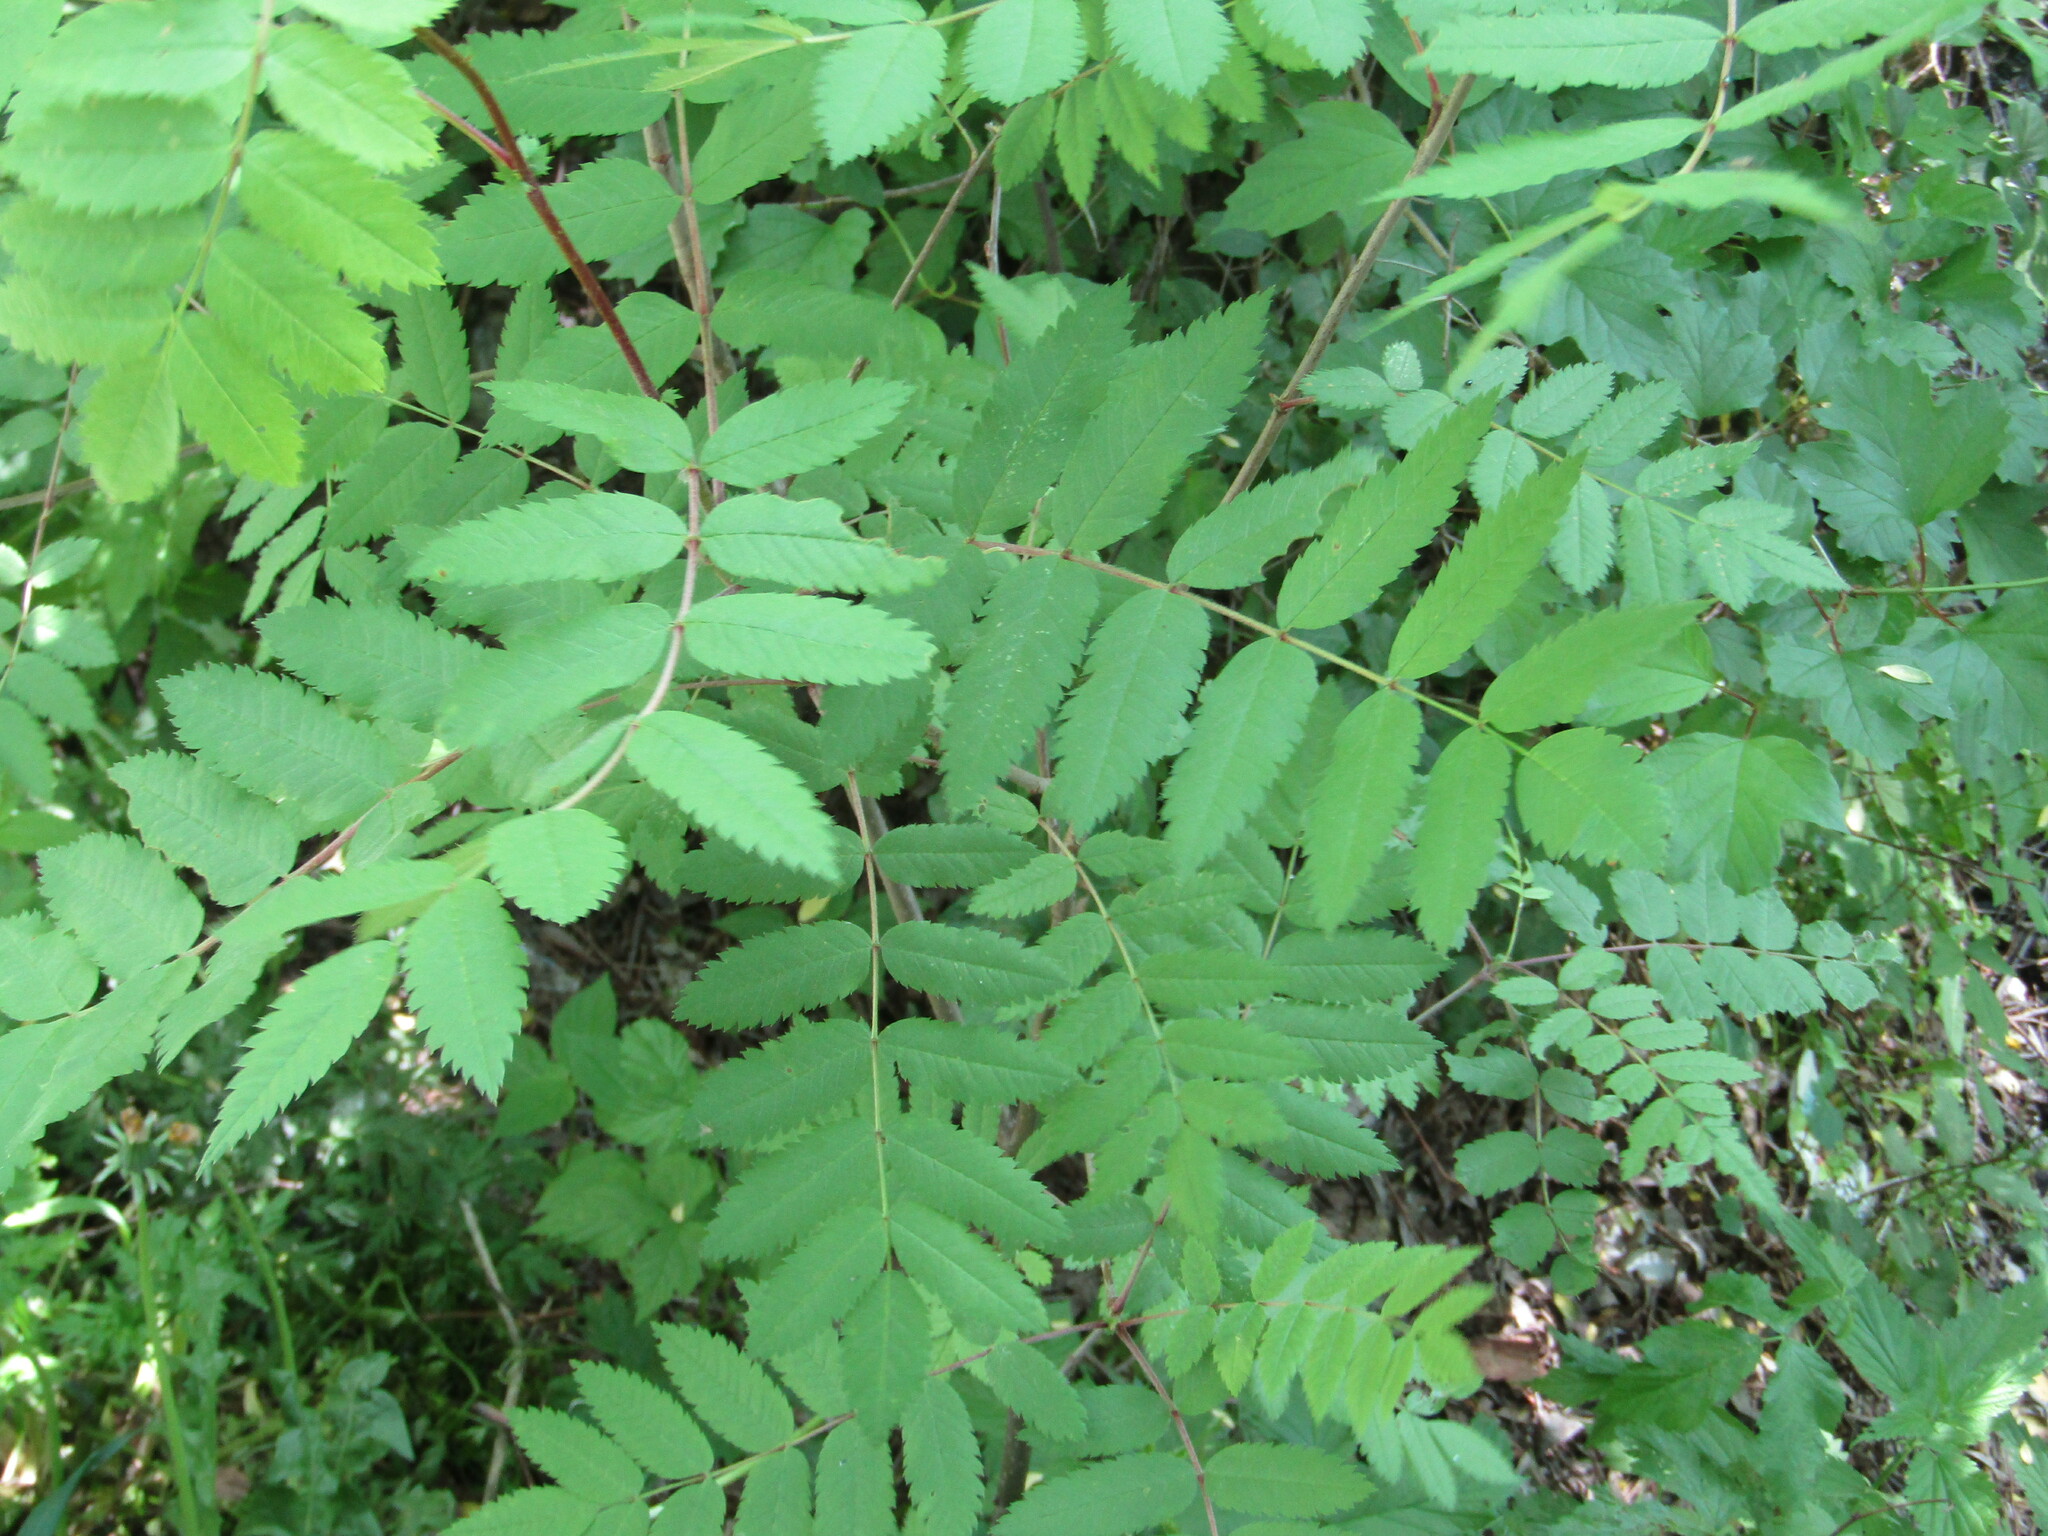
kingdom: Plantae
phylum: Tracheophyta
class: Magnoliopsida
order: Rosales
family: Rosaceae
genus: Sorbus
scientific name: Sorbus aucuparia
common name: Rowan
